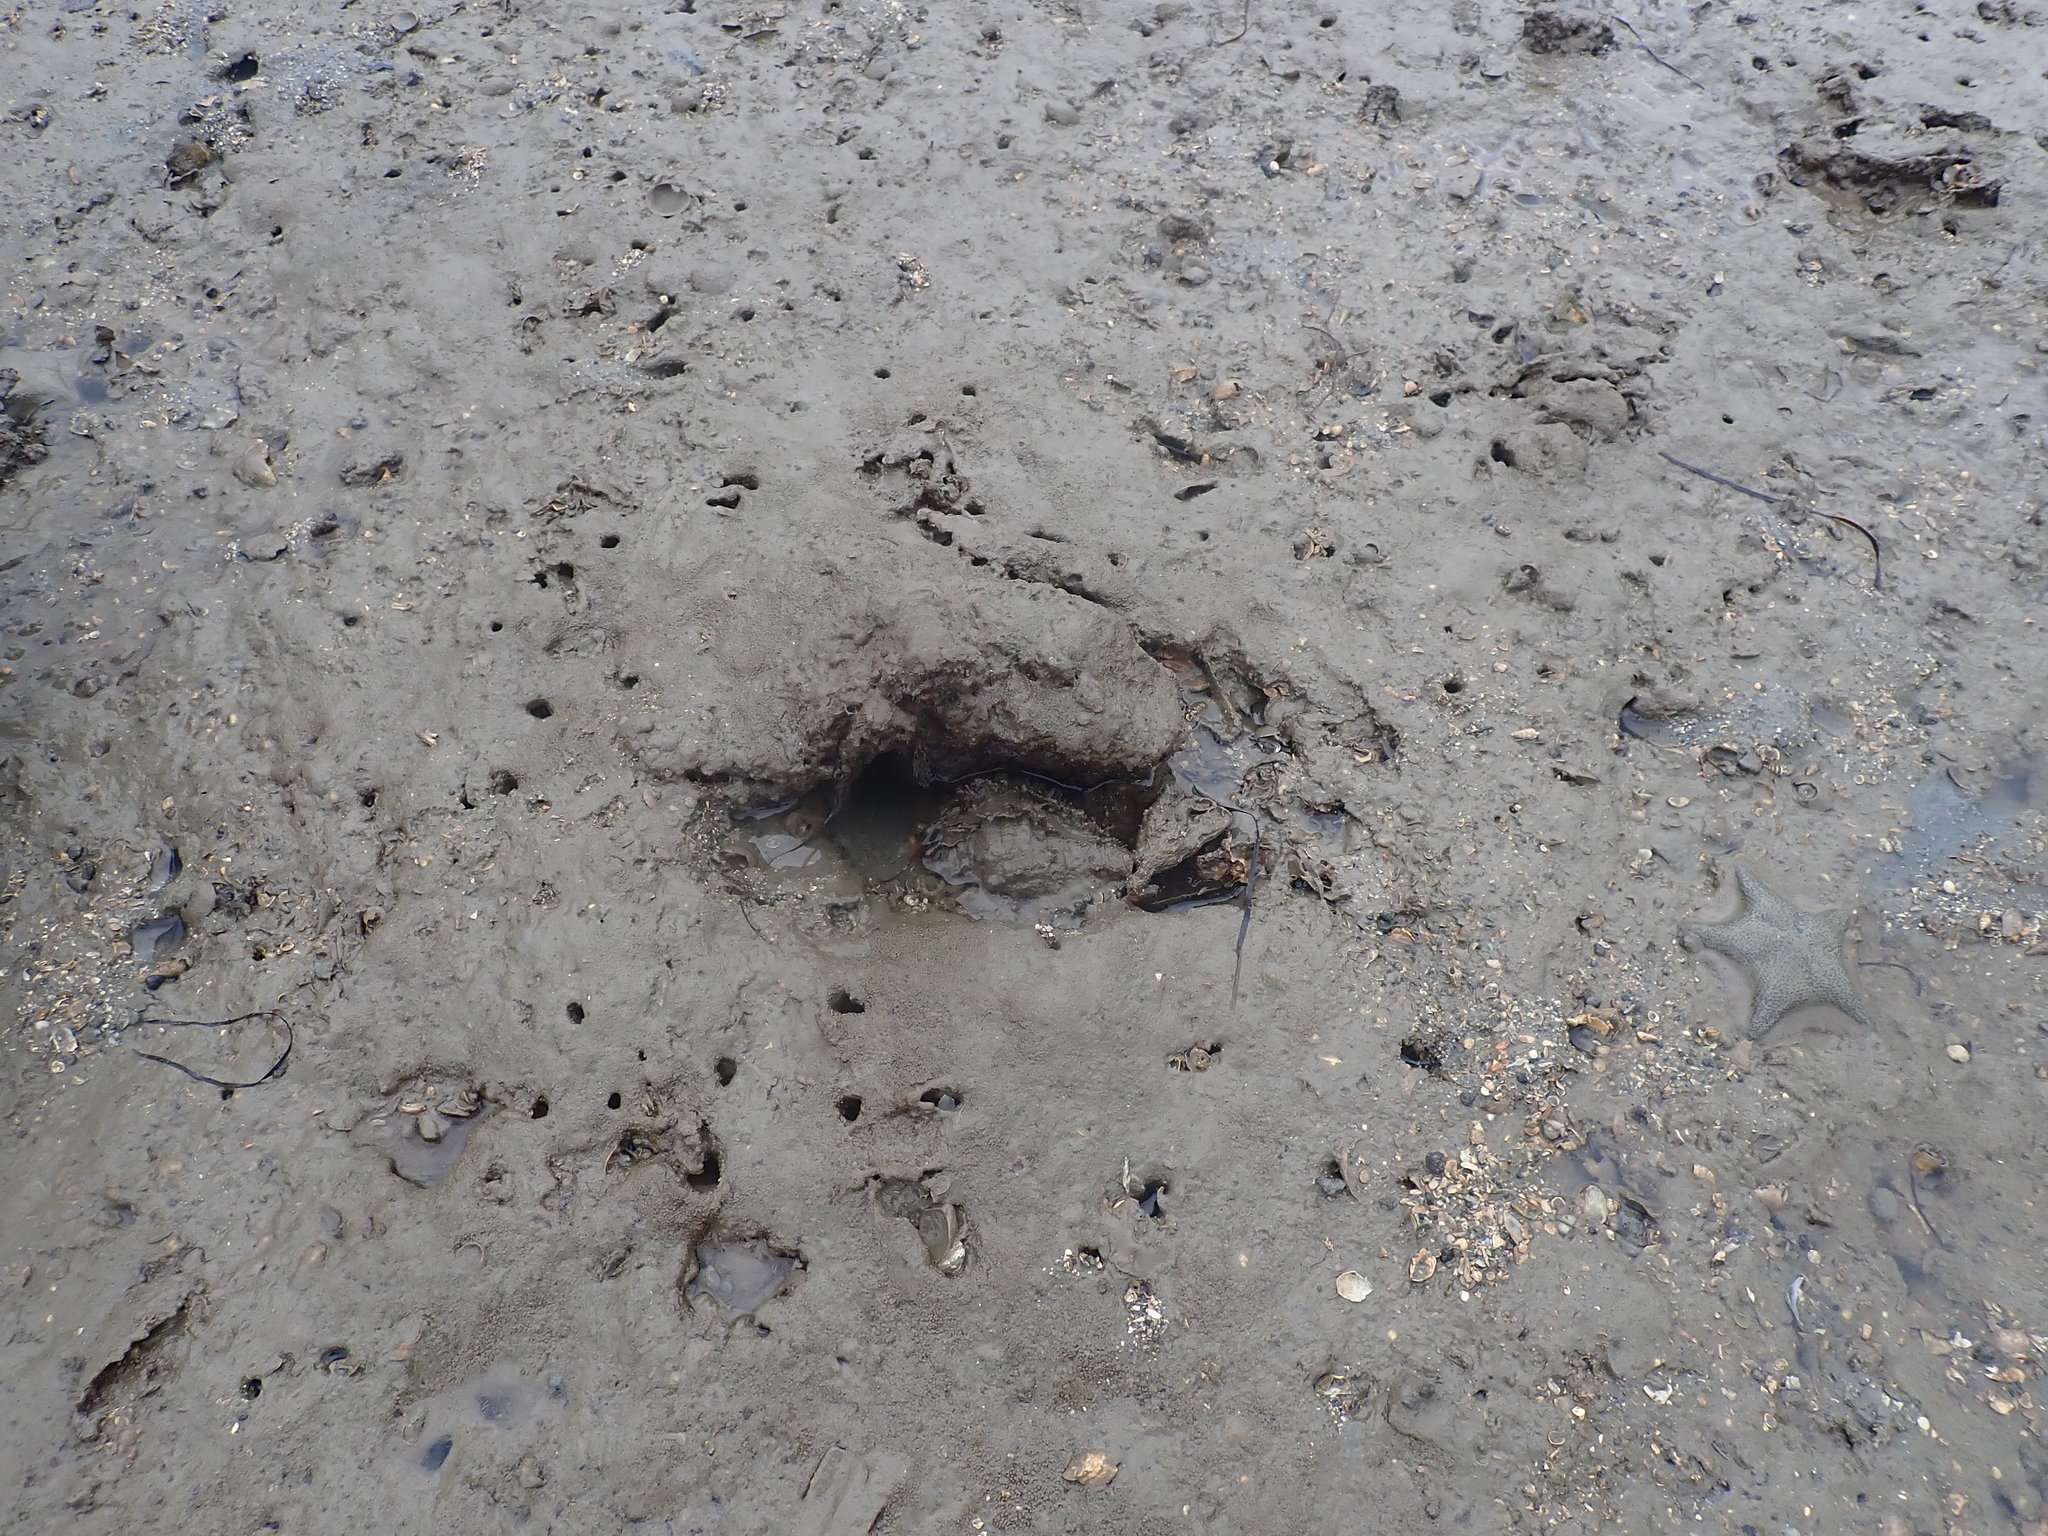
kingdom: Animalia
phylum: Mollusca
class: Gastropoda
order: Littorinimorpha
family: Cymatiidae
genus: Monoplex
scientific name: Monoplex parthenopeus
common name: Giant triton
